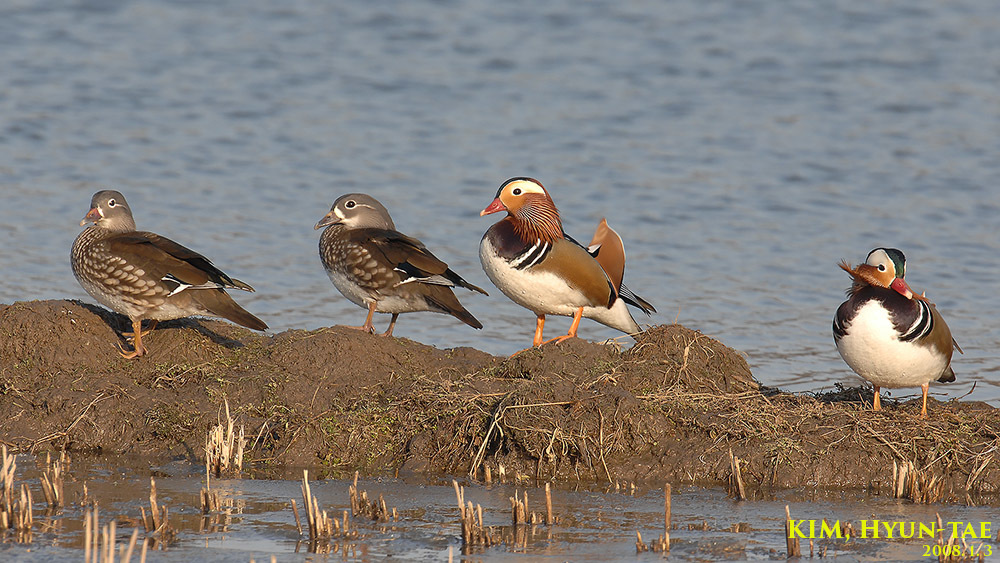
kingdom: Animalia
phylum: Chordata
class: Aves
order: Anseriformes
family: Anatidae
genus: Aix
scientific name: Aix galericulata
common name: Mandarin duck
